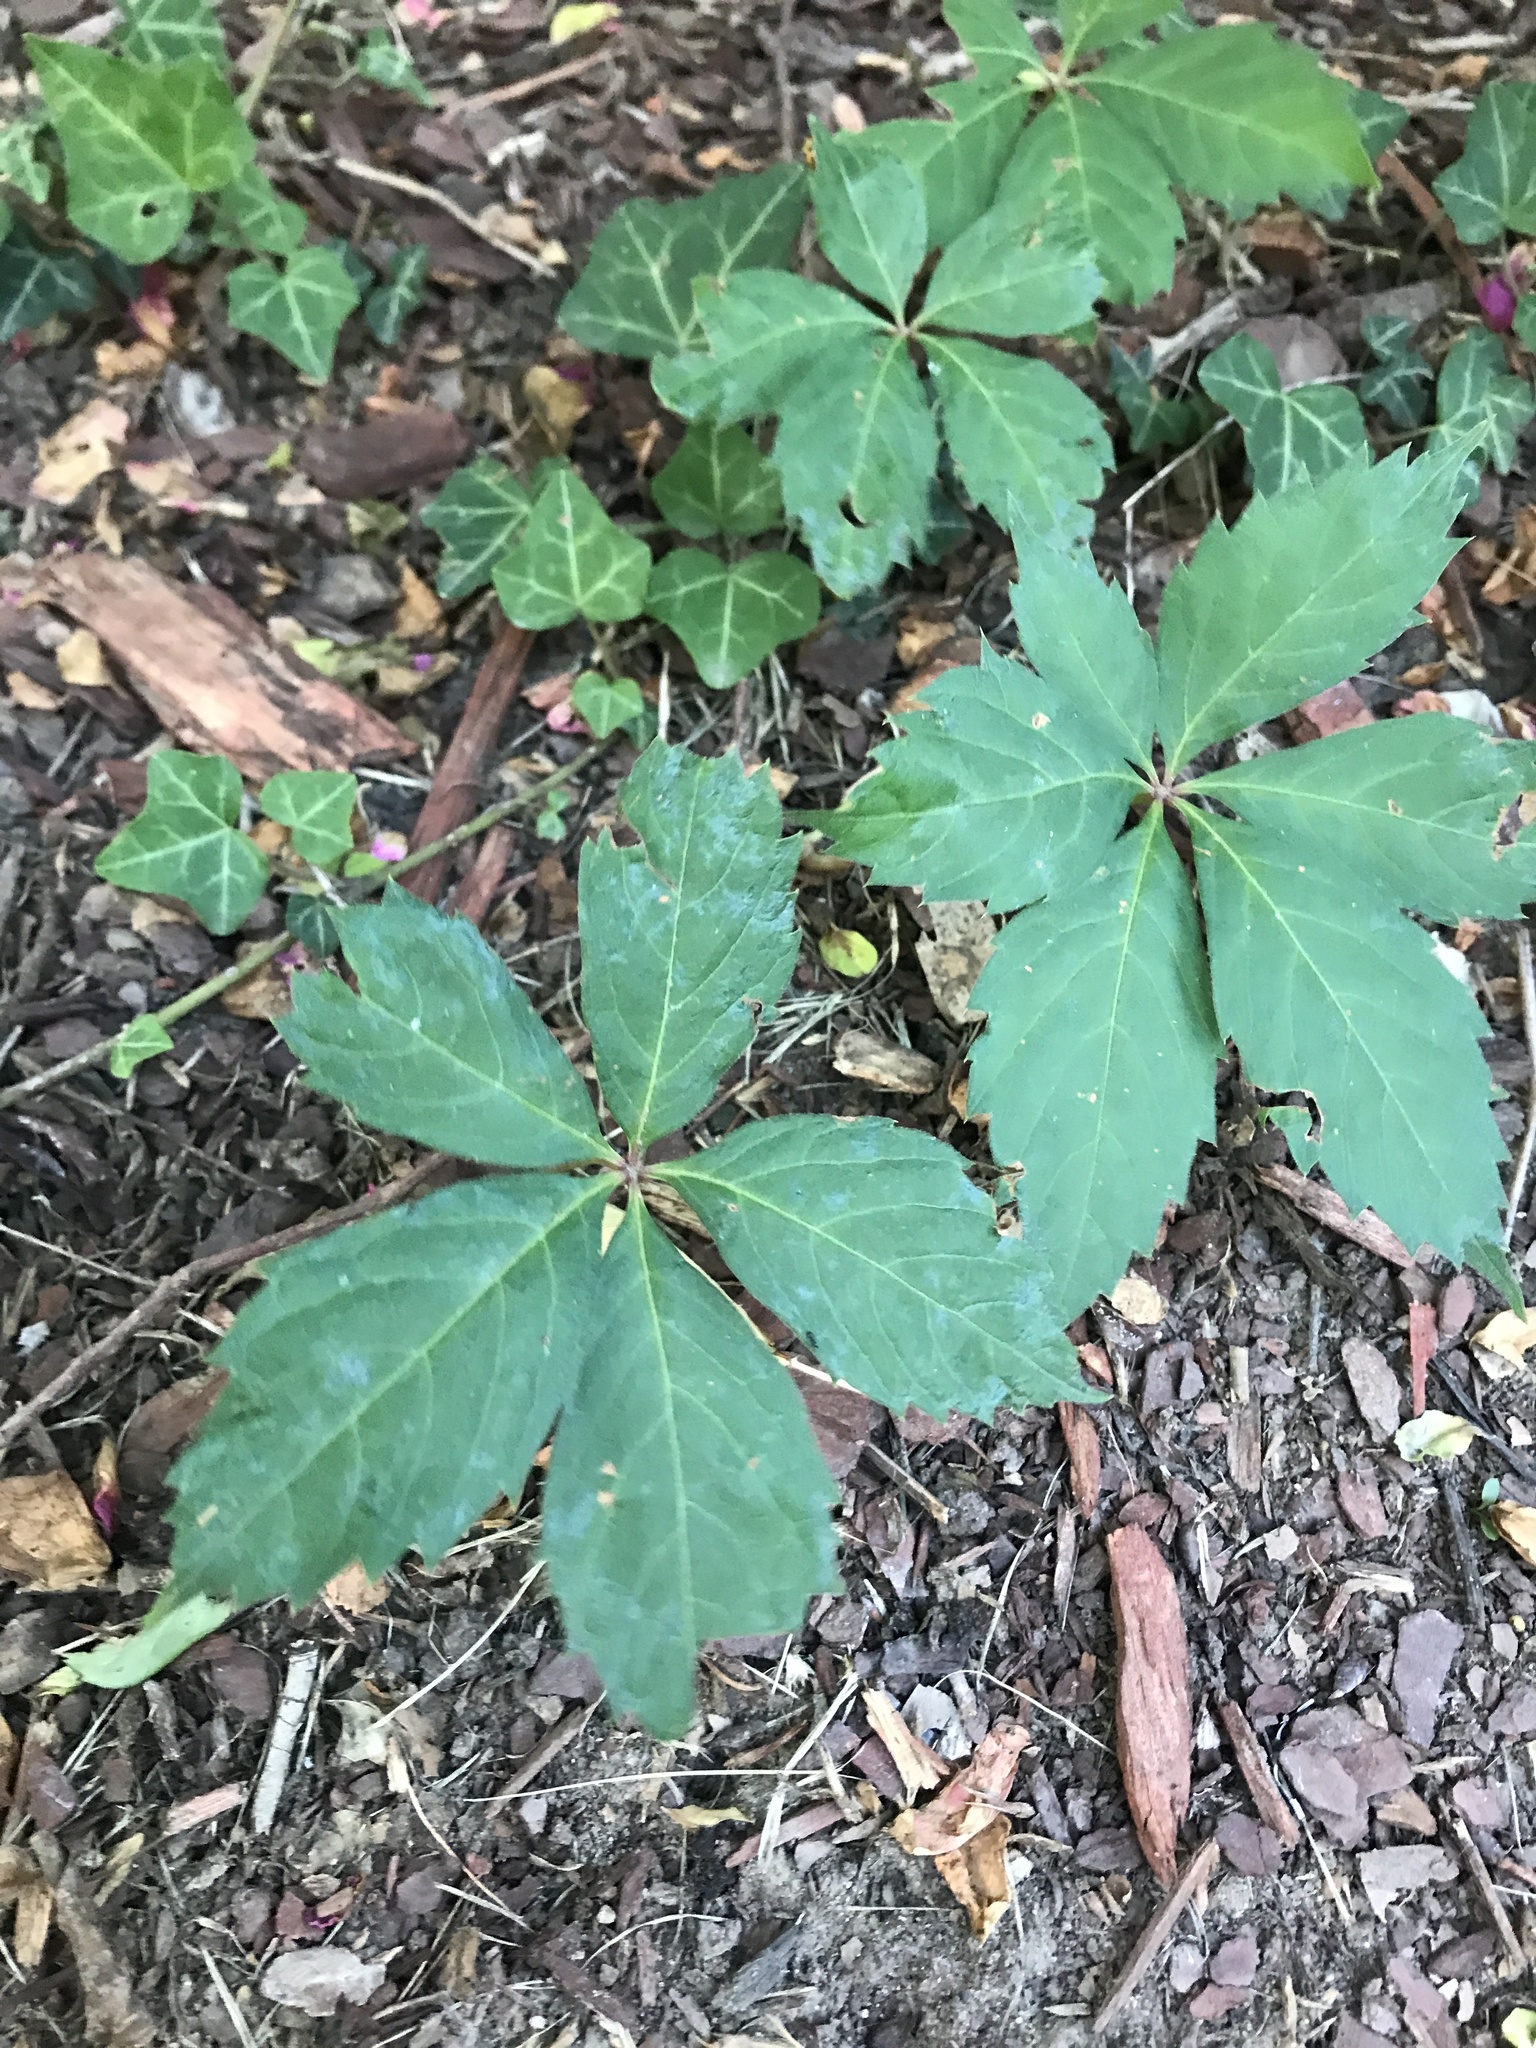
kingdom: Plantae
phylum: Tracheophyta
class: Magnoliopsida
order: Vitales
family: Vitaceae
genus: Parthenocissus
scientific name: Parthenocissus quinquefolia
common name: Virginia-creeper
